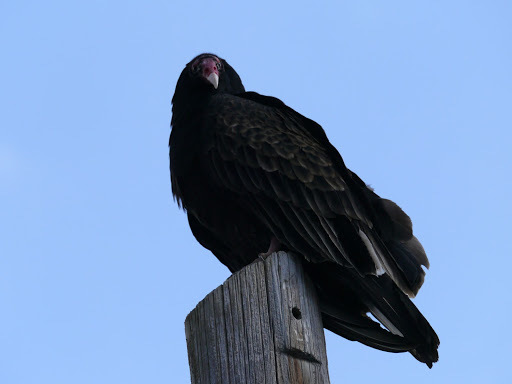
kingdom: Animalia
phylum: Chordata
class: Aves
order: Accipitriformes
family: Cathartidae
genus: Cathartes
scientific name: Cathartes aura
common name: Turkey vulture
